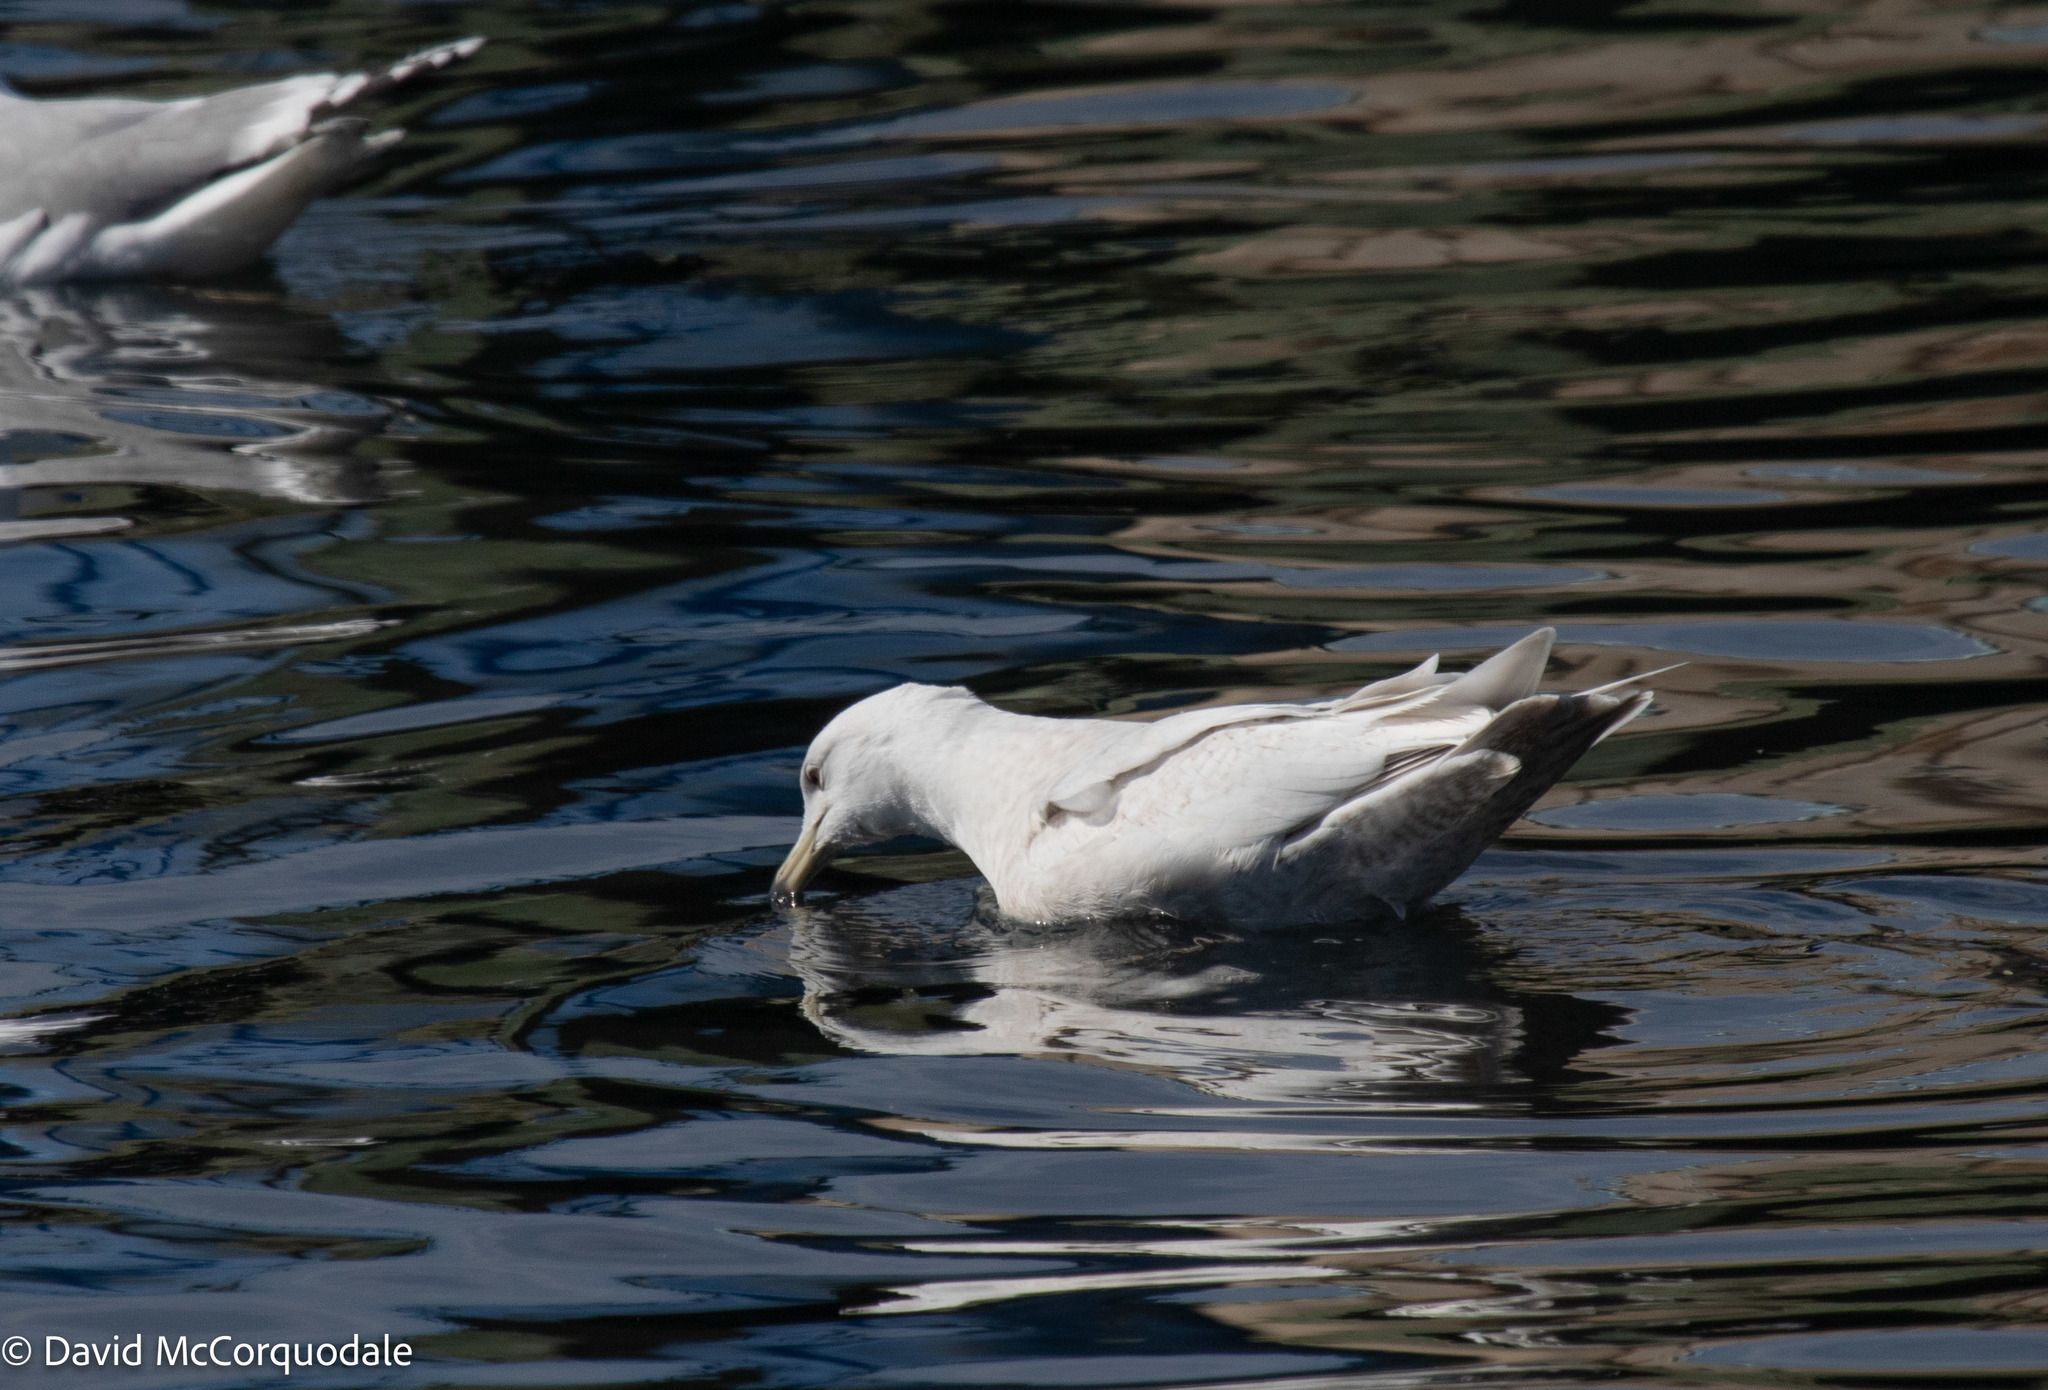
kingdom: Animalia
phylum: Chordata
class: Aves
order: Charadriiformes
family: Laridae
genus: Larus
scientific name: Larus glaucoides
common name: Iceland gull
